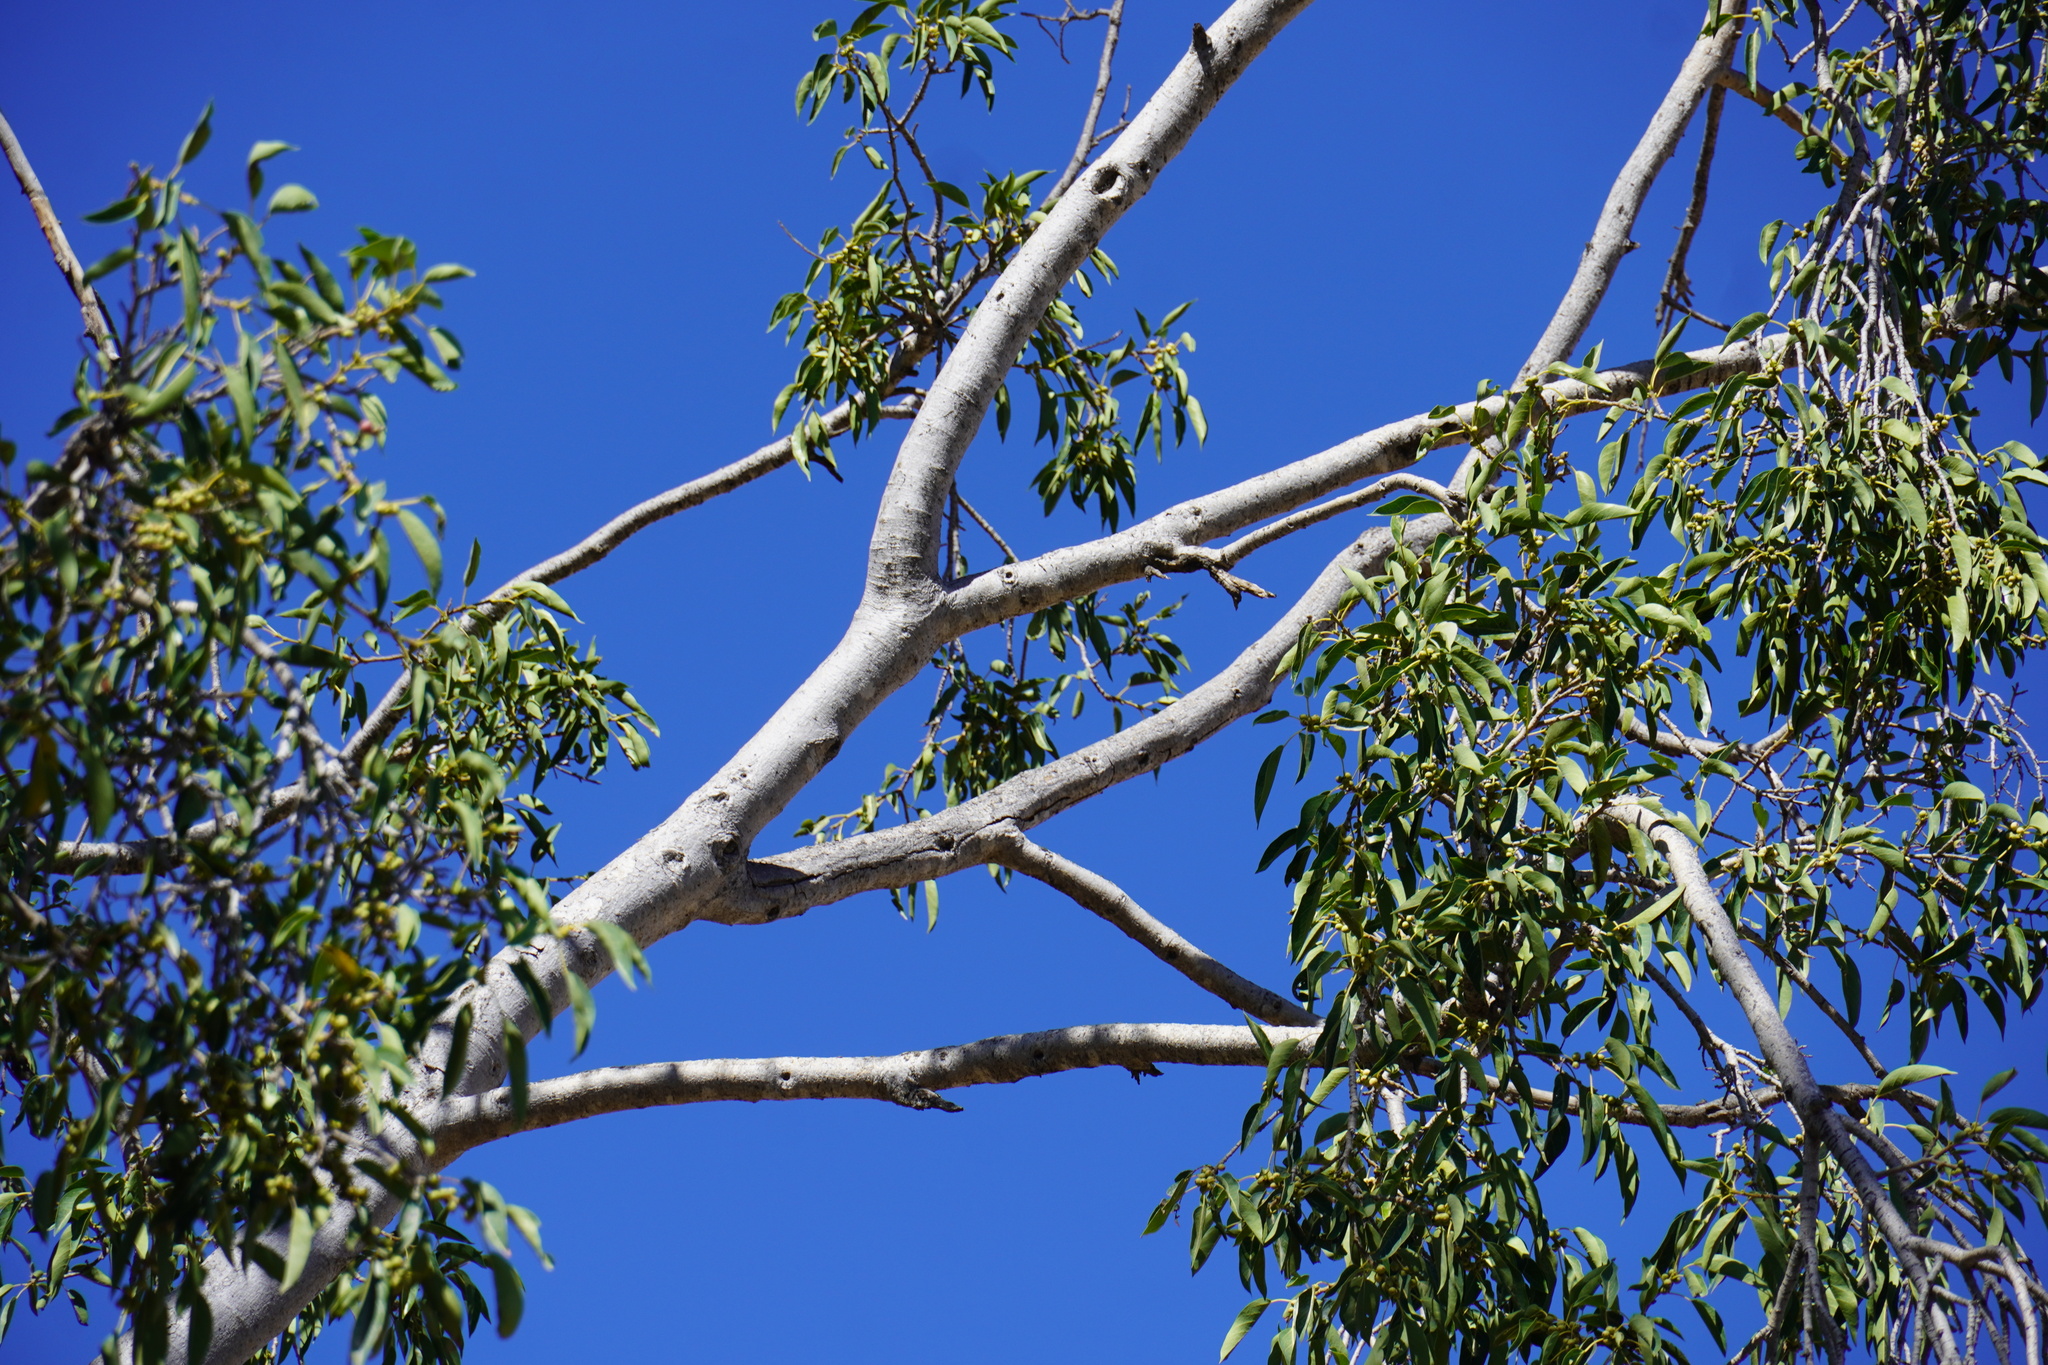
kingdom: Plantae
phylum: Tracheophyta
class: Magnoliopsida
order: Rosales
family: Moraceae
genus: Ficus
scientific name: Ficus cordata
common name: Namaqua rock fig
